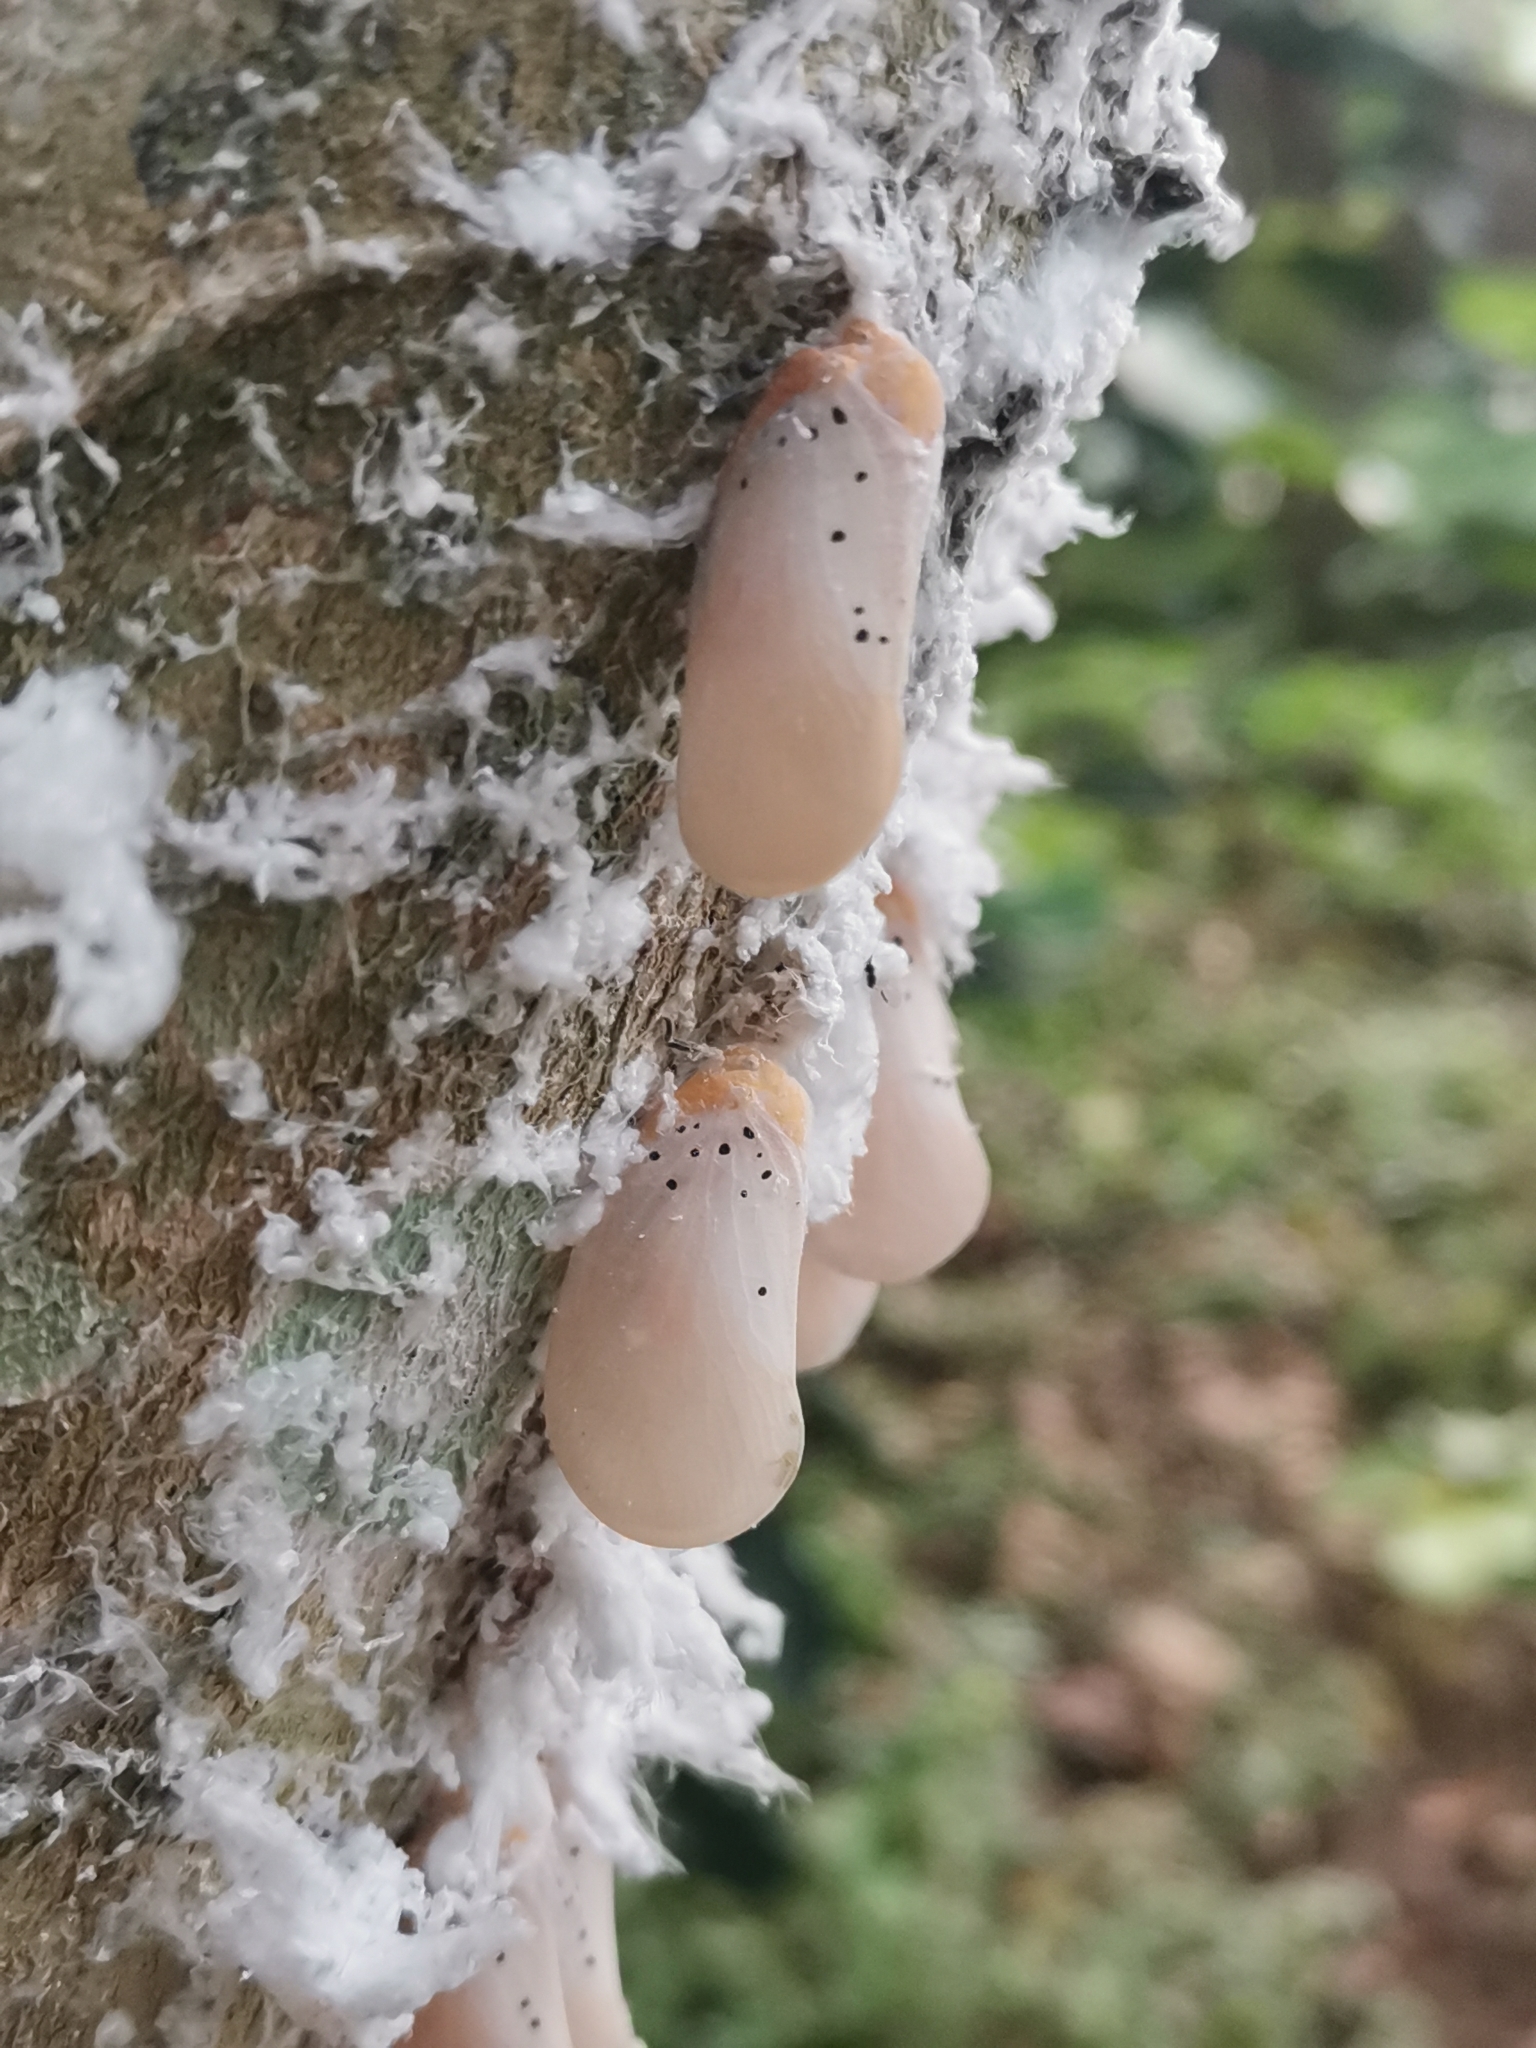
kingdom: Animalia
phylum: Arthropoda
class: Insecta
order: Hemiptera
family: Flatidae
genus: Poekilloptera
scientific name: Poekilloptera phalaenoides
